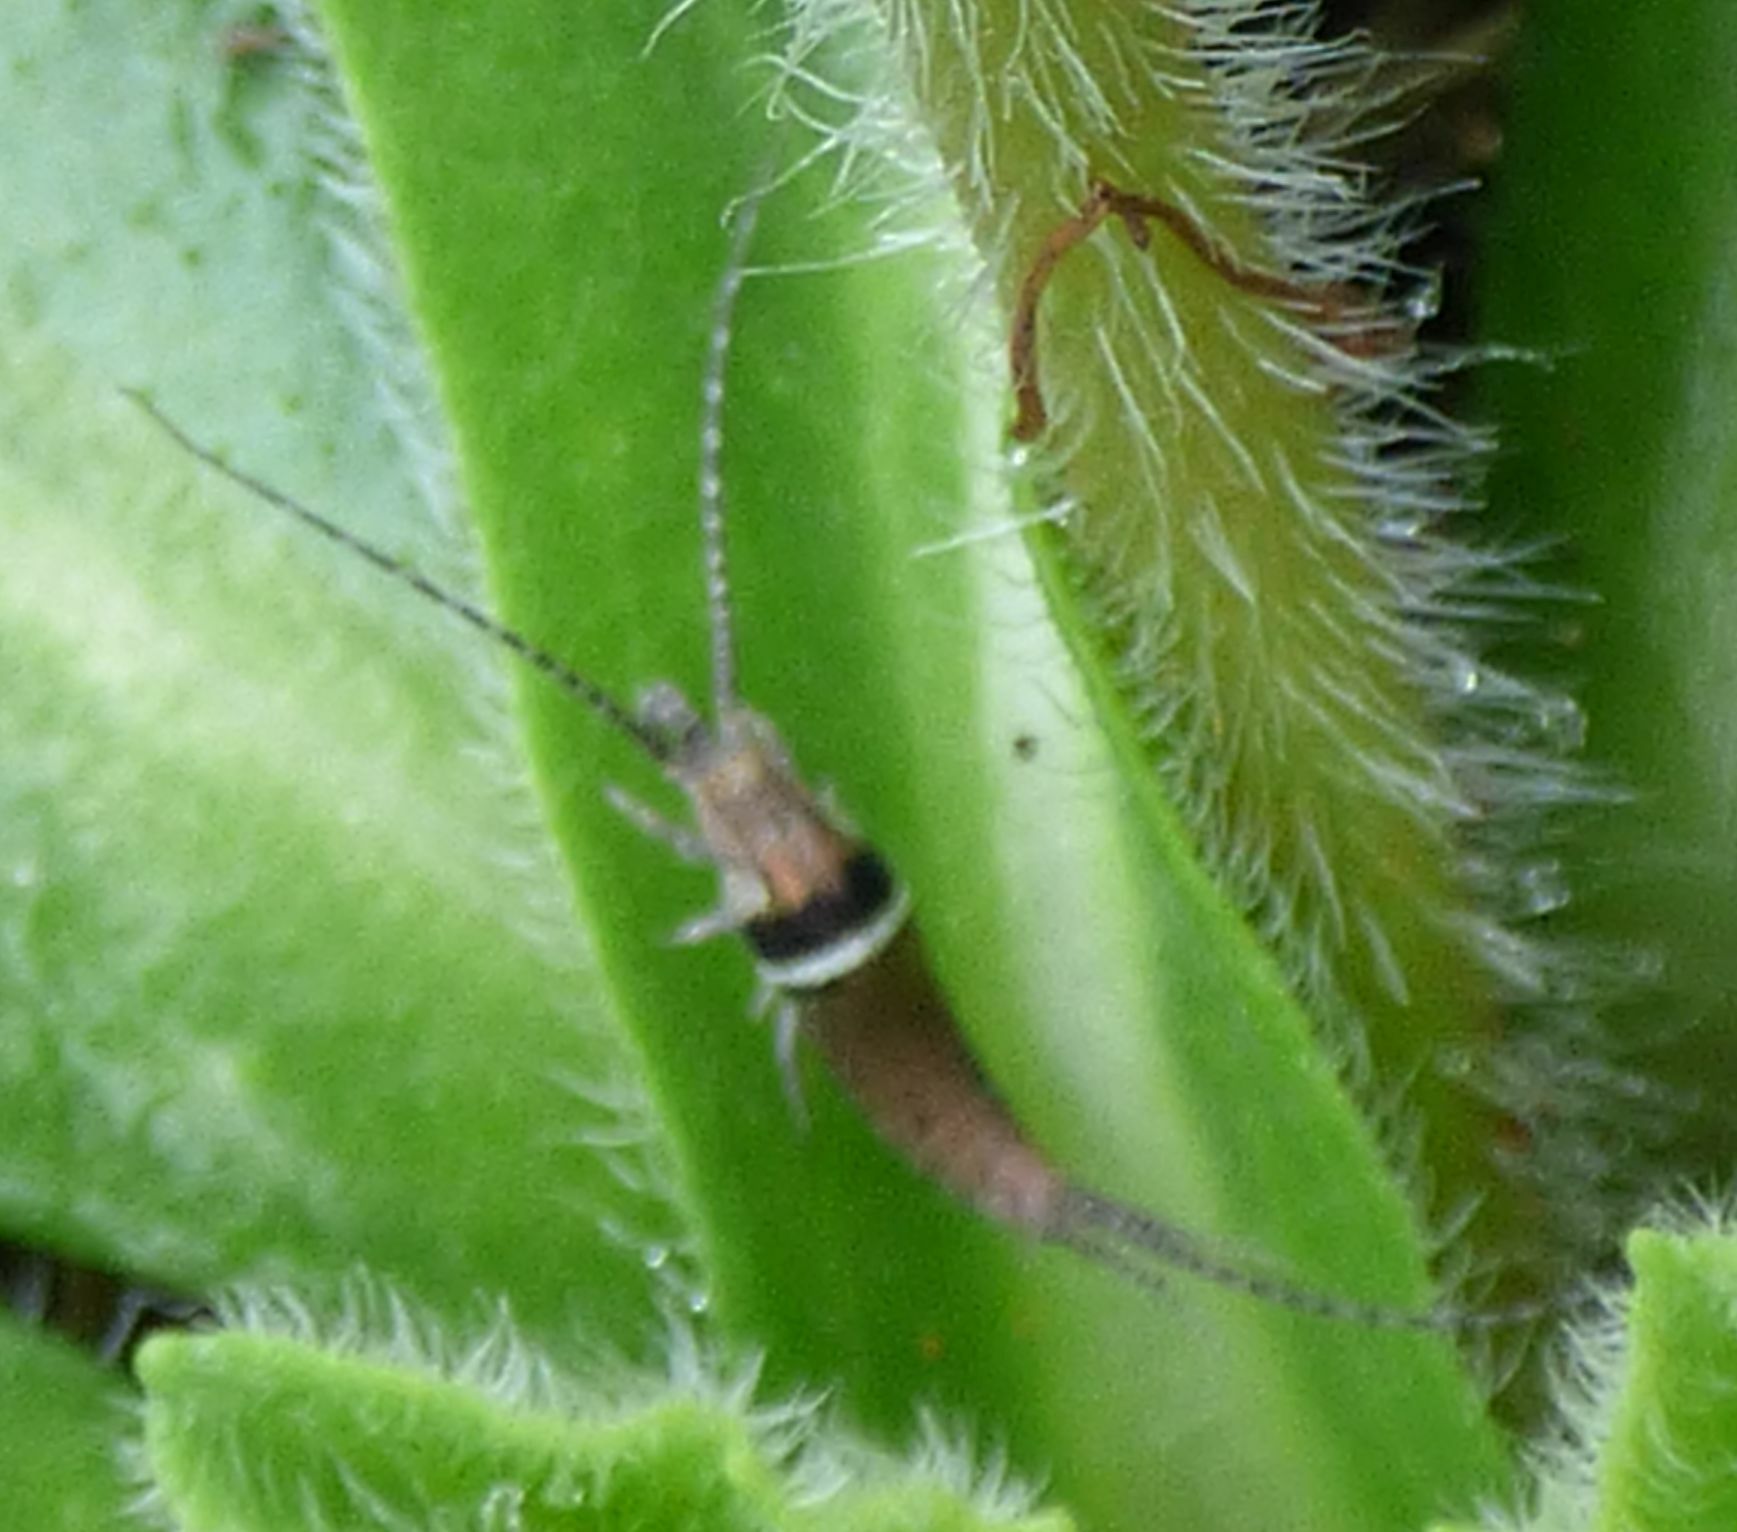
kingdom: Animalia
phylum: Arthropoda
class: Insecta
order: Archaeognatha
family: Machilidae
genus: Silvestrichilis
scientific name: Silvestrichilis trispina
